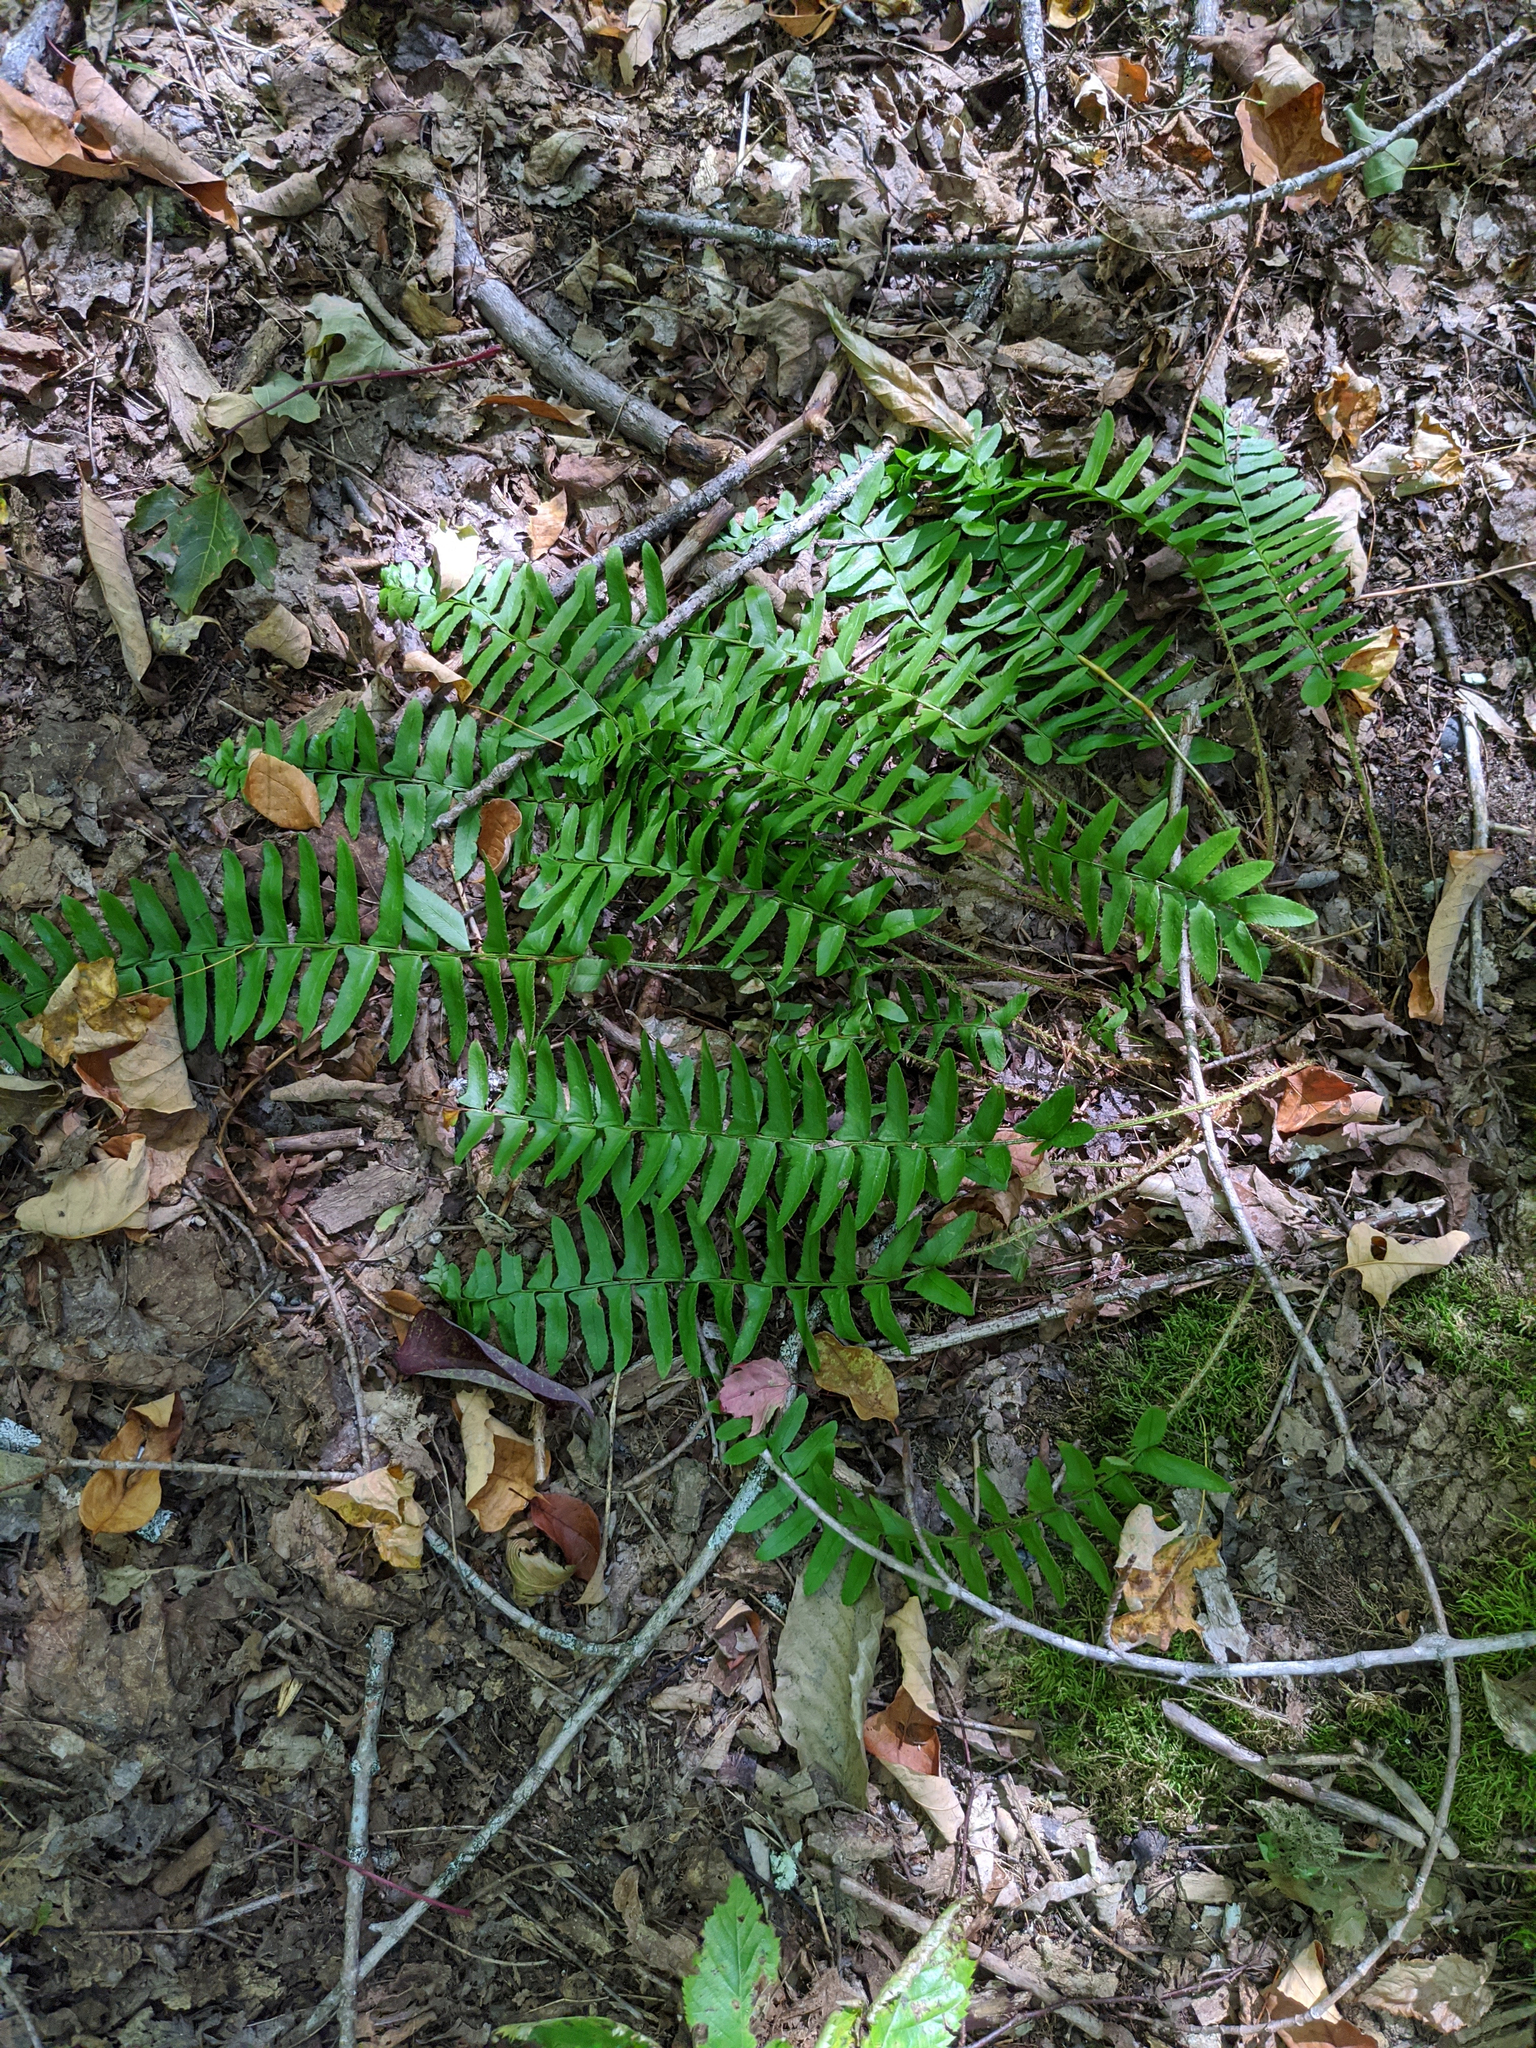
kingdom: Plantae
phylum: Tracheophyta
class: Polypodiopsida
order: Polypodiales
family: Dryopteridaceae
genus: Polystichum
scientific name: Polystichum acrostichoides
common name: Christmas fern
